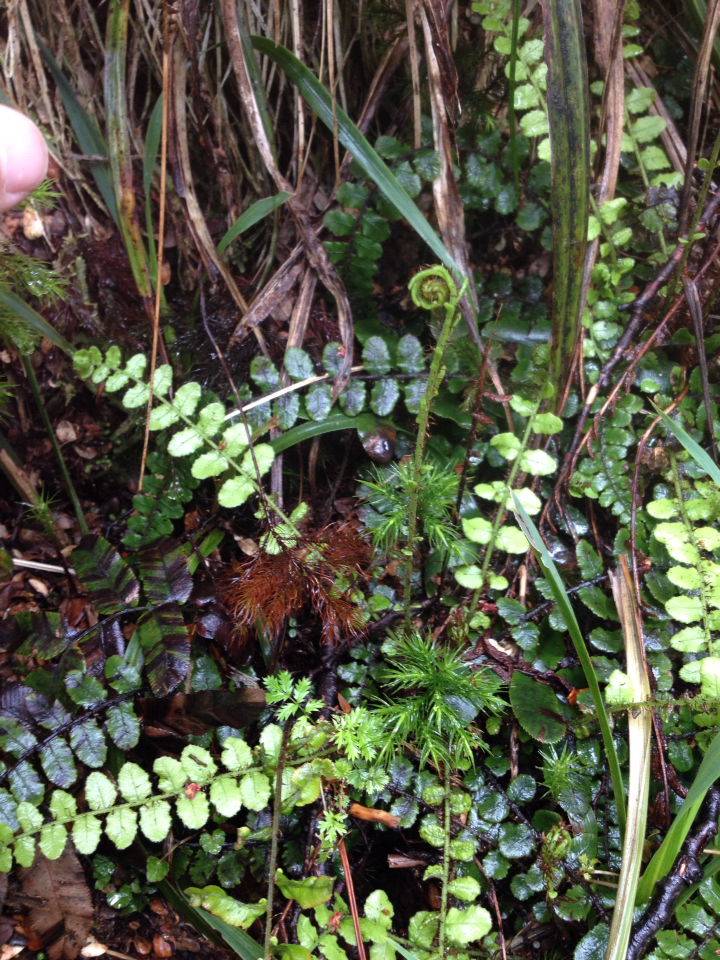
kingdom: Plantae
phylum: Tracheophyta
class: Polypodiopsida
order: Polypodiales
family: Blechnaceae
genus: Cranfillia
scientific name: Cranfillia fluviatilis
